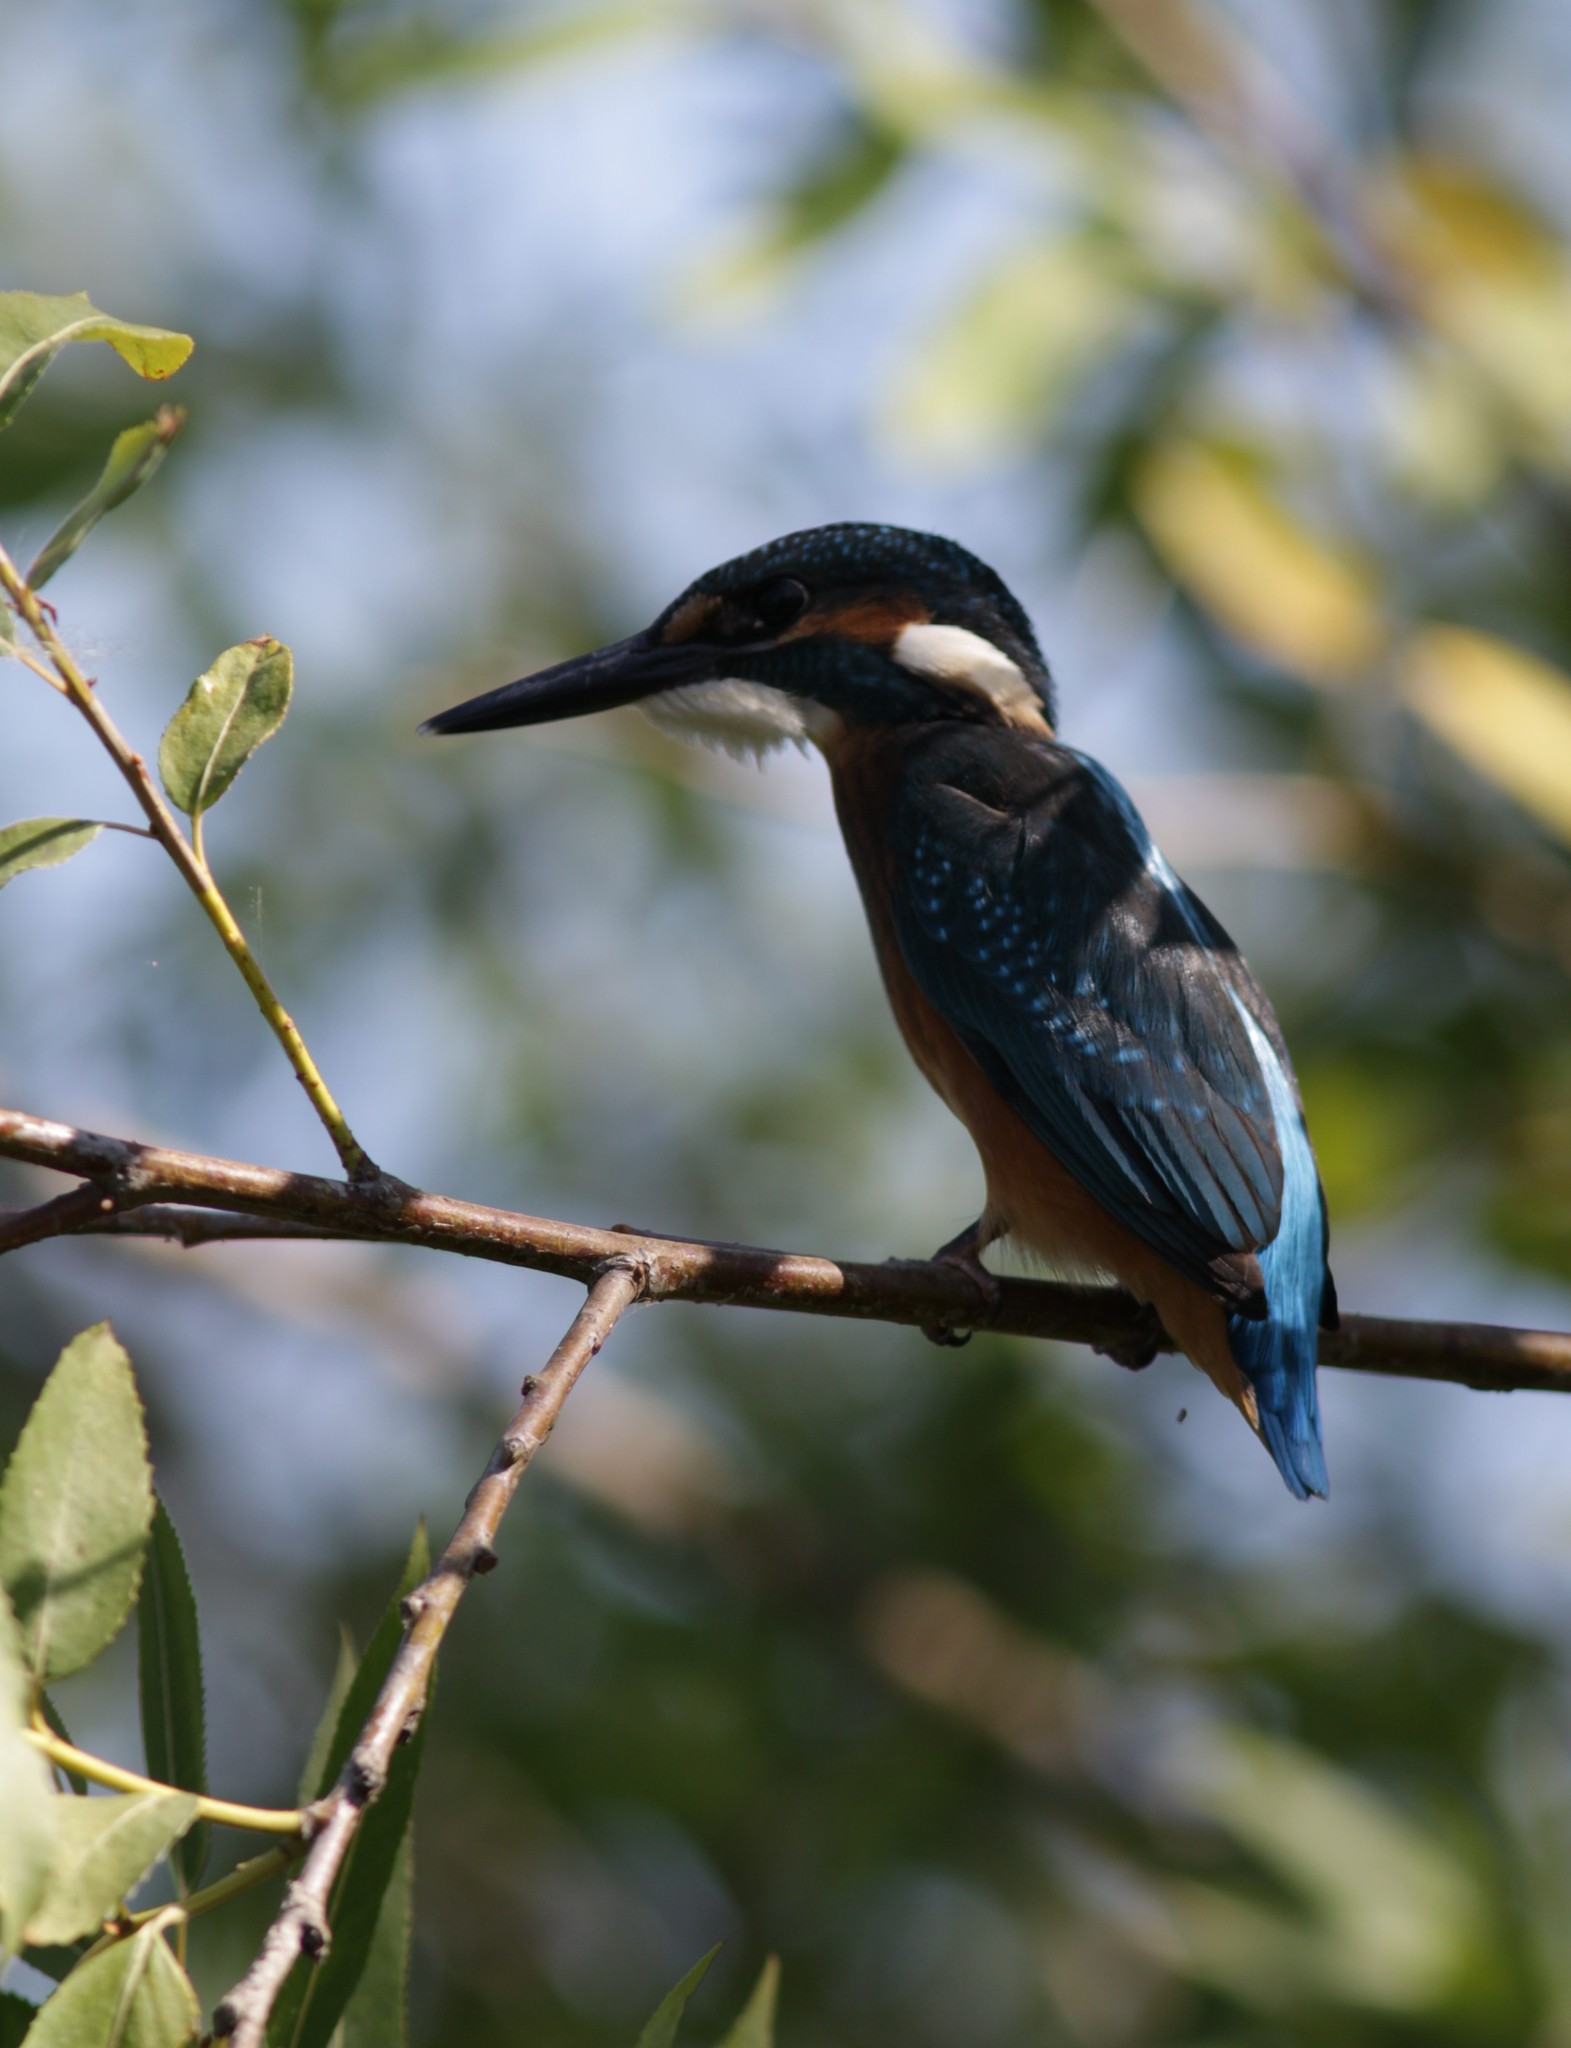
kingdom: Animalia
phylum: Chordata
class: Aves
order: Coraciiformes
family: Alcedinidae
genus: Alcedo
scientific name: Alcedo atthis
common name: Common kingfisher
